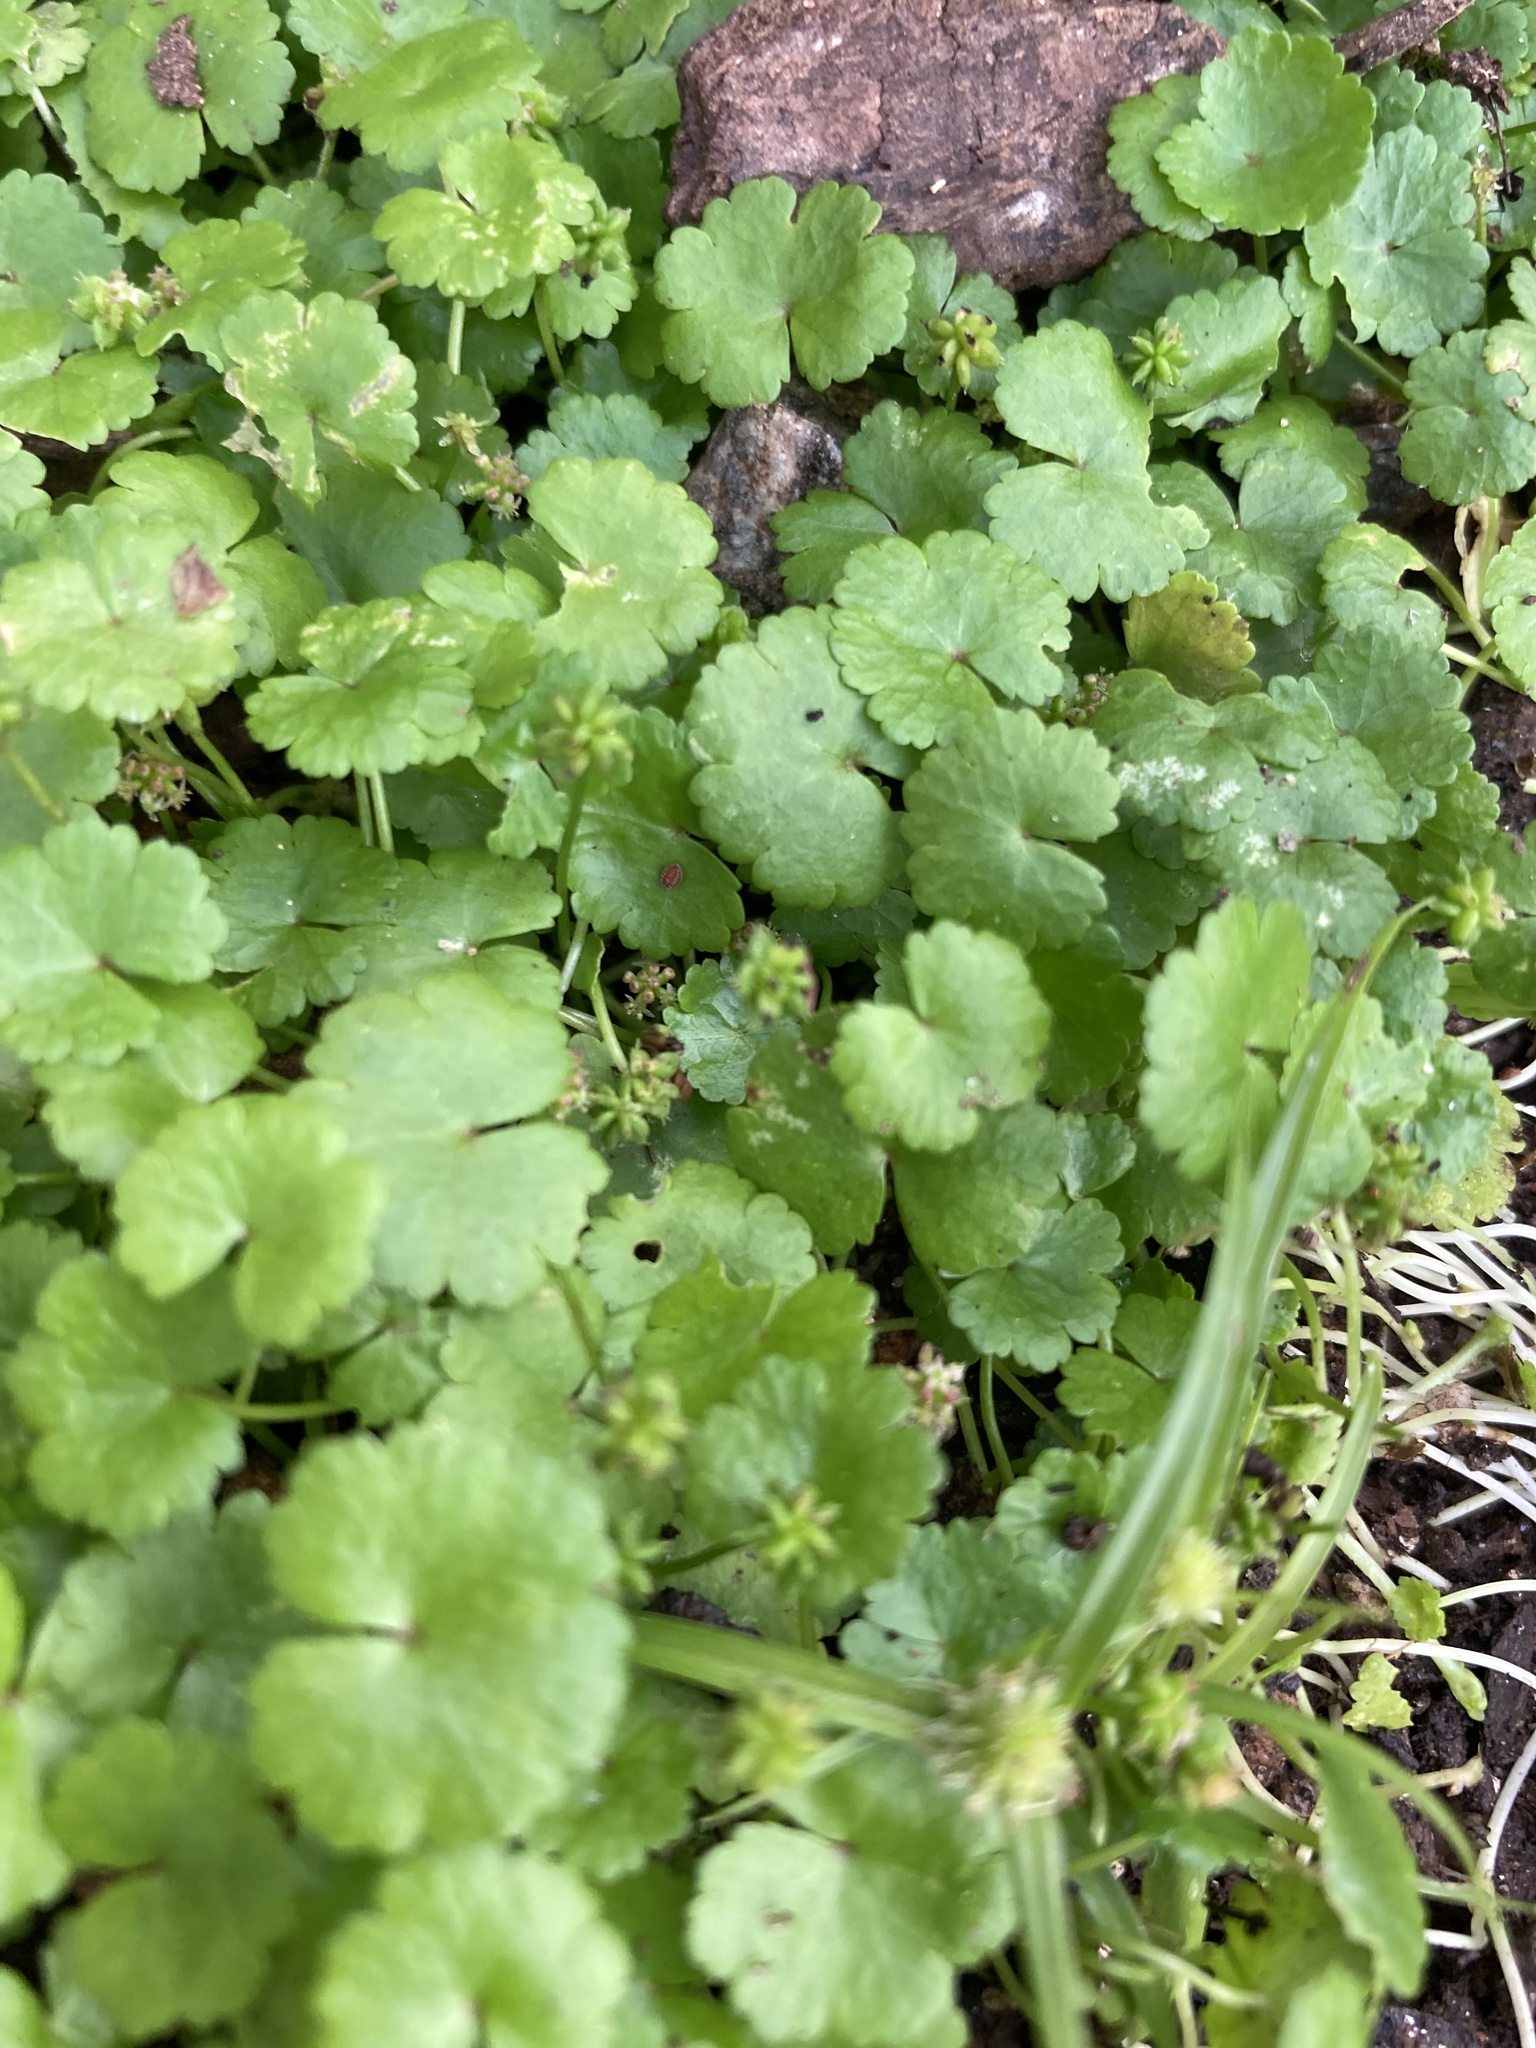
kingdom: Plantae
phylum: Tracheophyta
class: Magnoliopsida
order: Apiales
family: Araliaceae
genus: Hydrocotyle
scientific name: Hydrocotyle sibthorpioides
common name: Lawn marshpennywort
